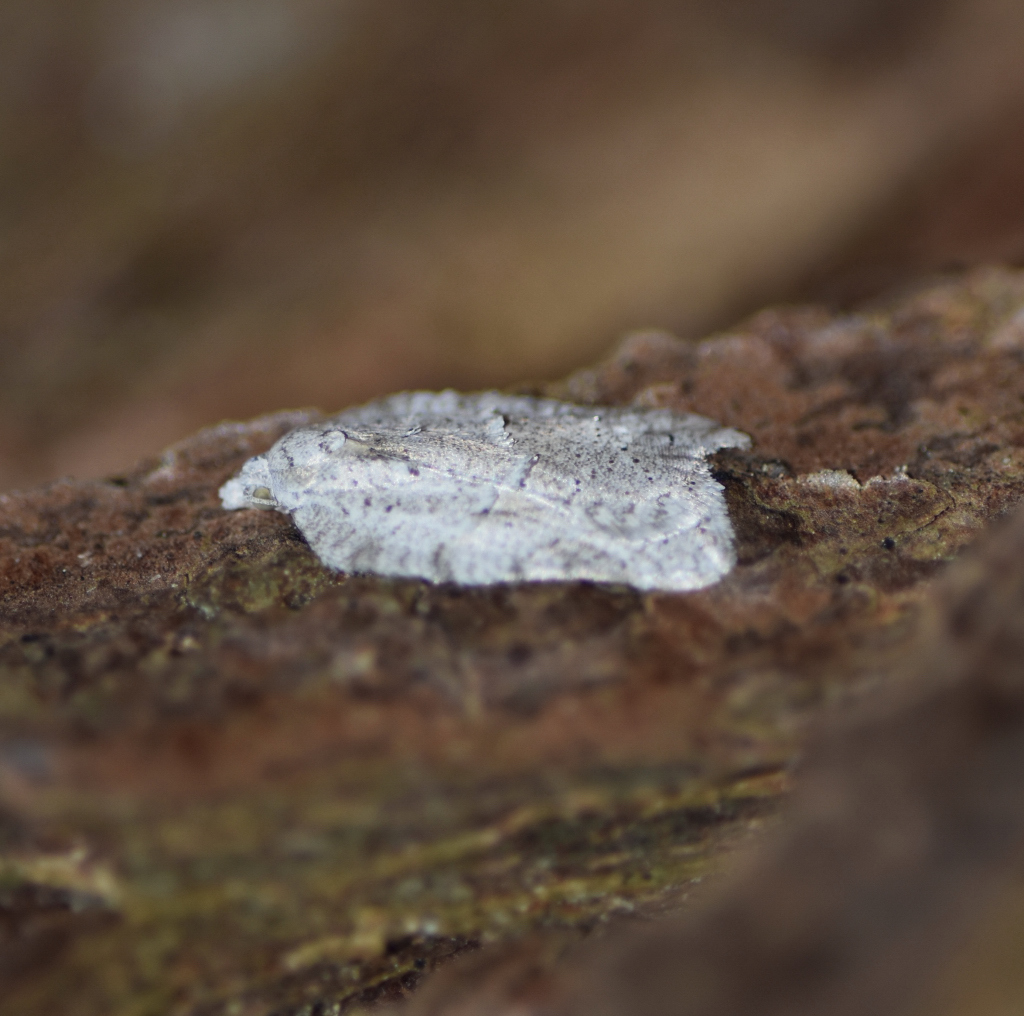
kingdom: Animalia
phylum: Arthropoda
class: Insecta
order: Lepidoptera
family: Tortricidae
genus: Acleris
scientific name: Acleris placidana
